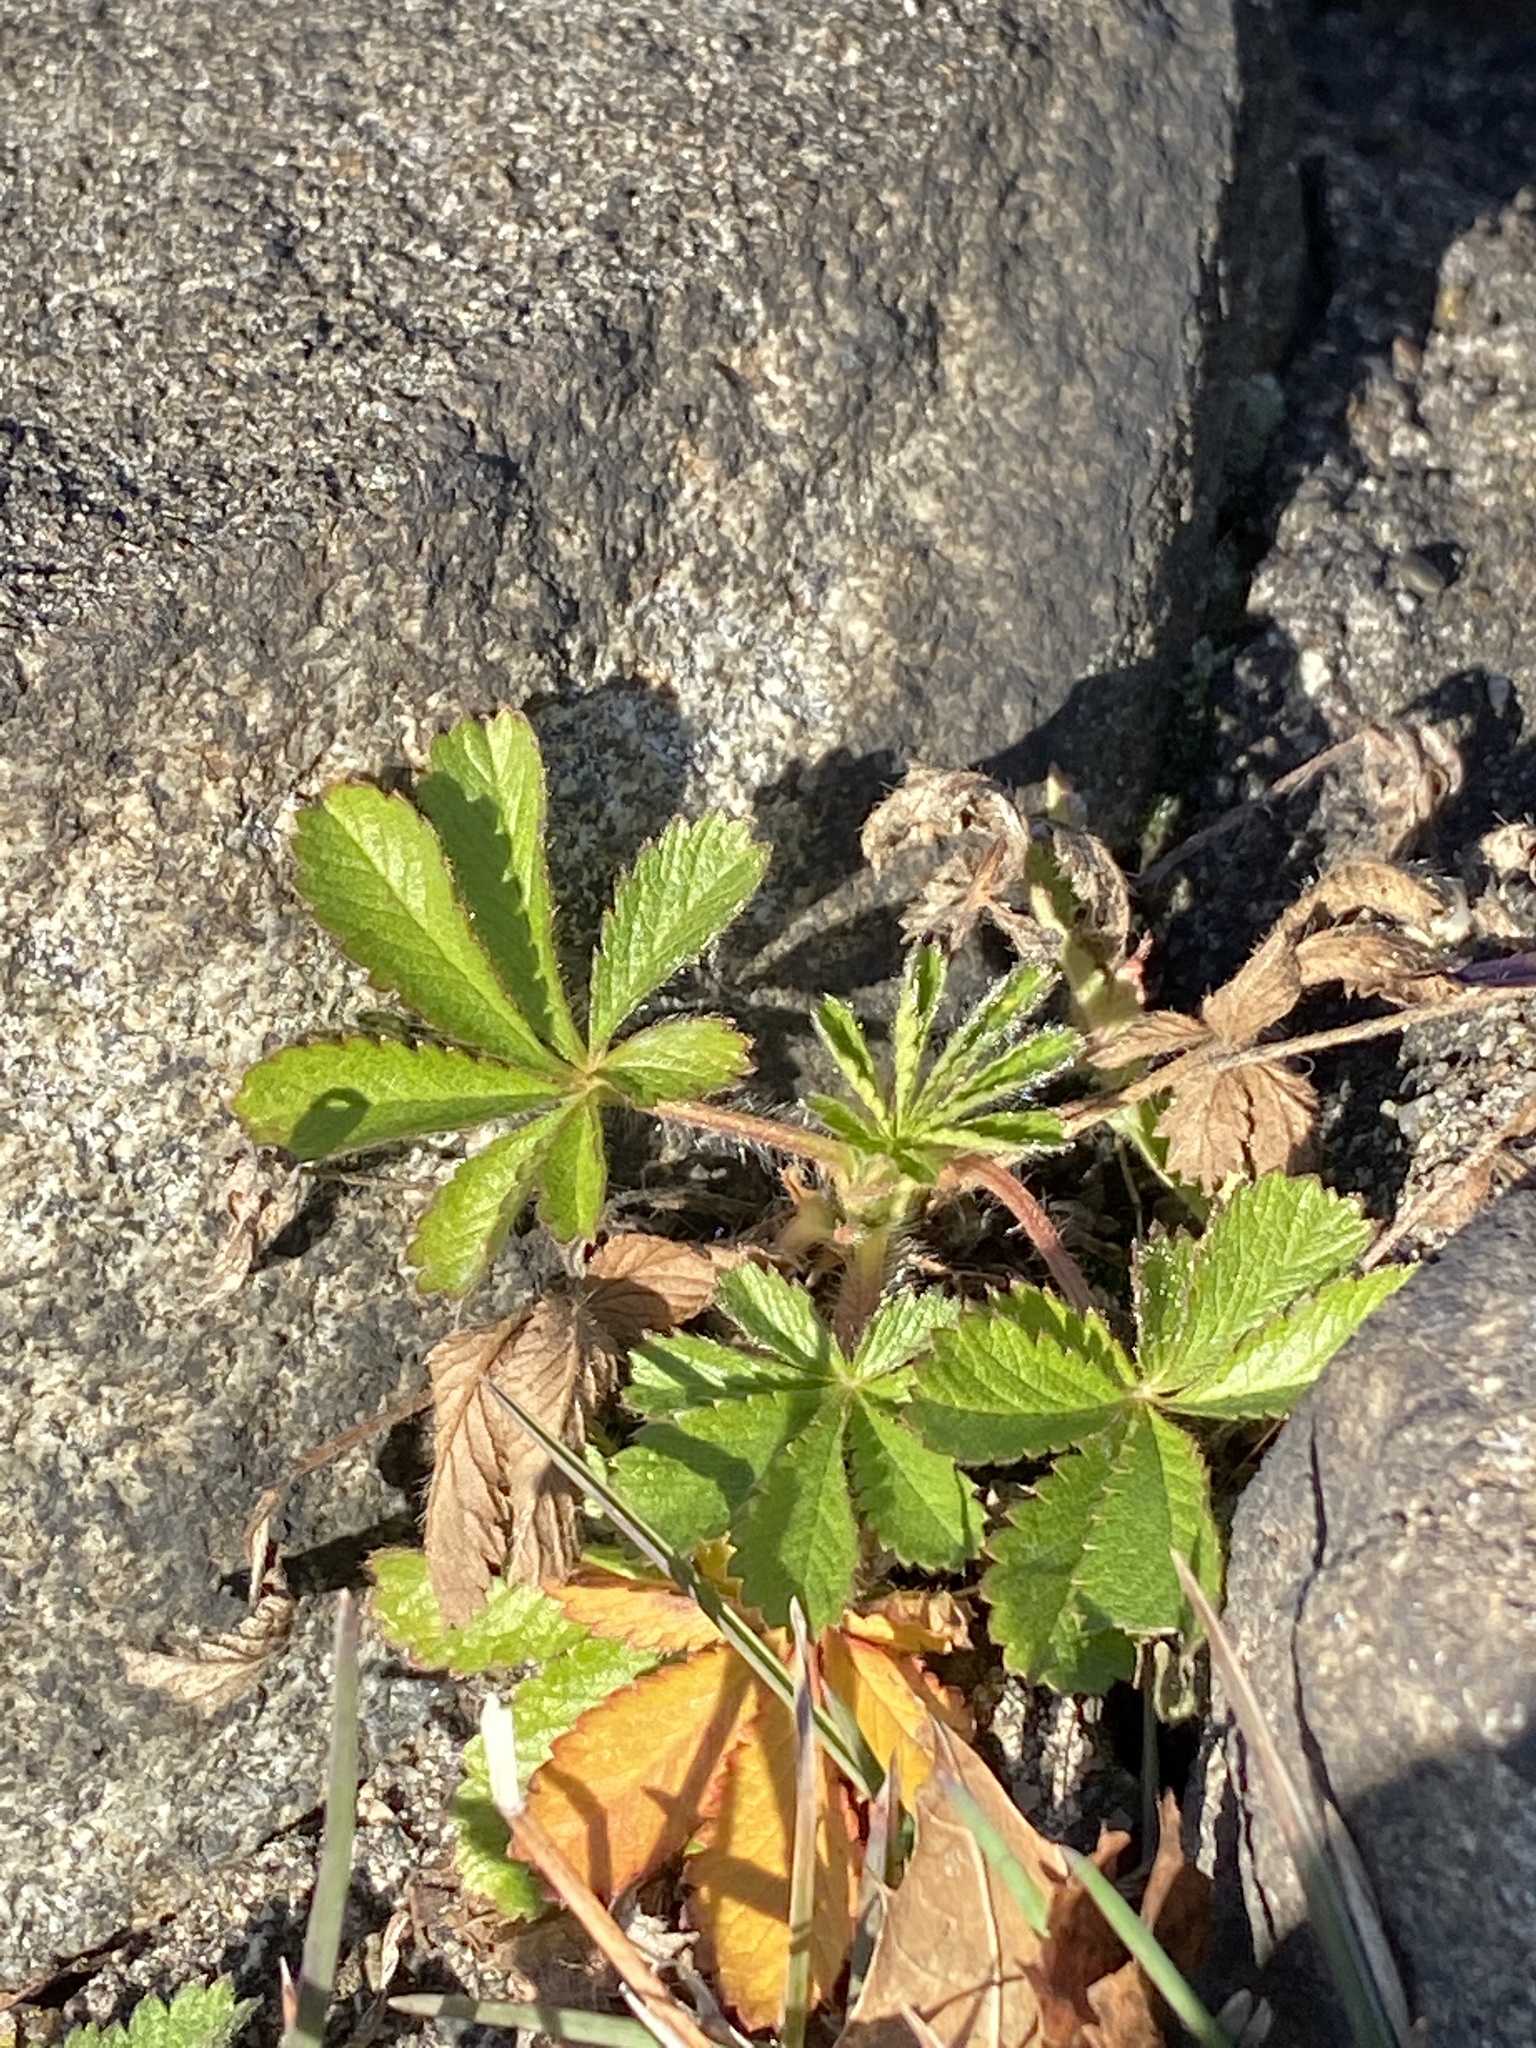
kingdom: Plantae
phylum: Tracheophyta
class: Magnoliopsida
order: Rosales
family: Rosaceae
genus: Potentilla
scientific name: Potentilla recta
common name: Sulphur cinquefoil
